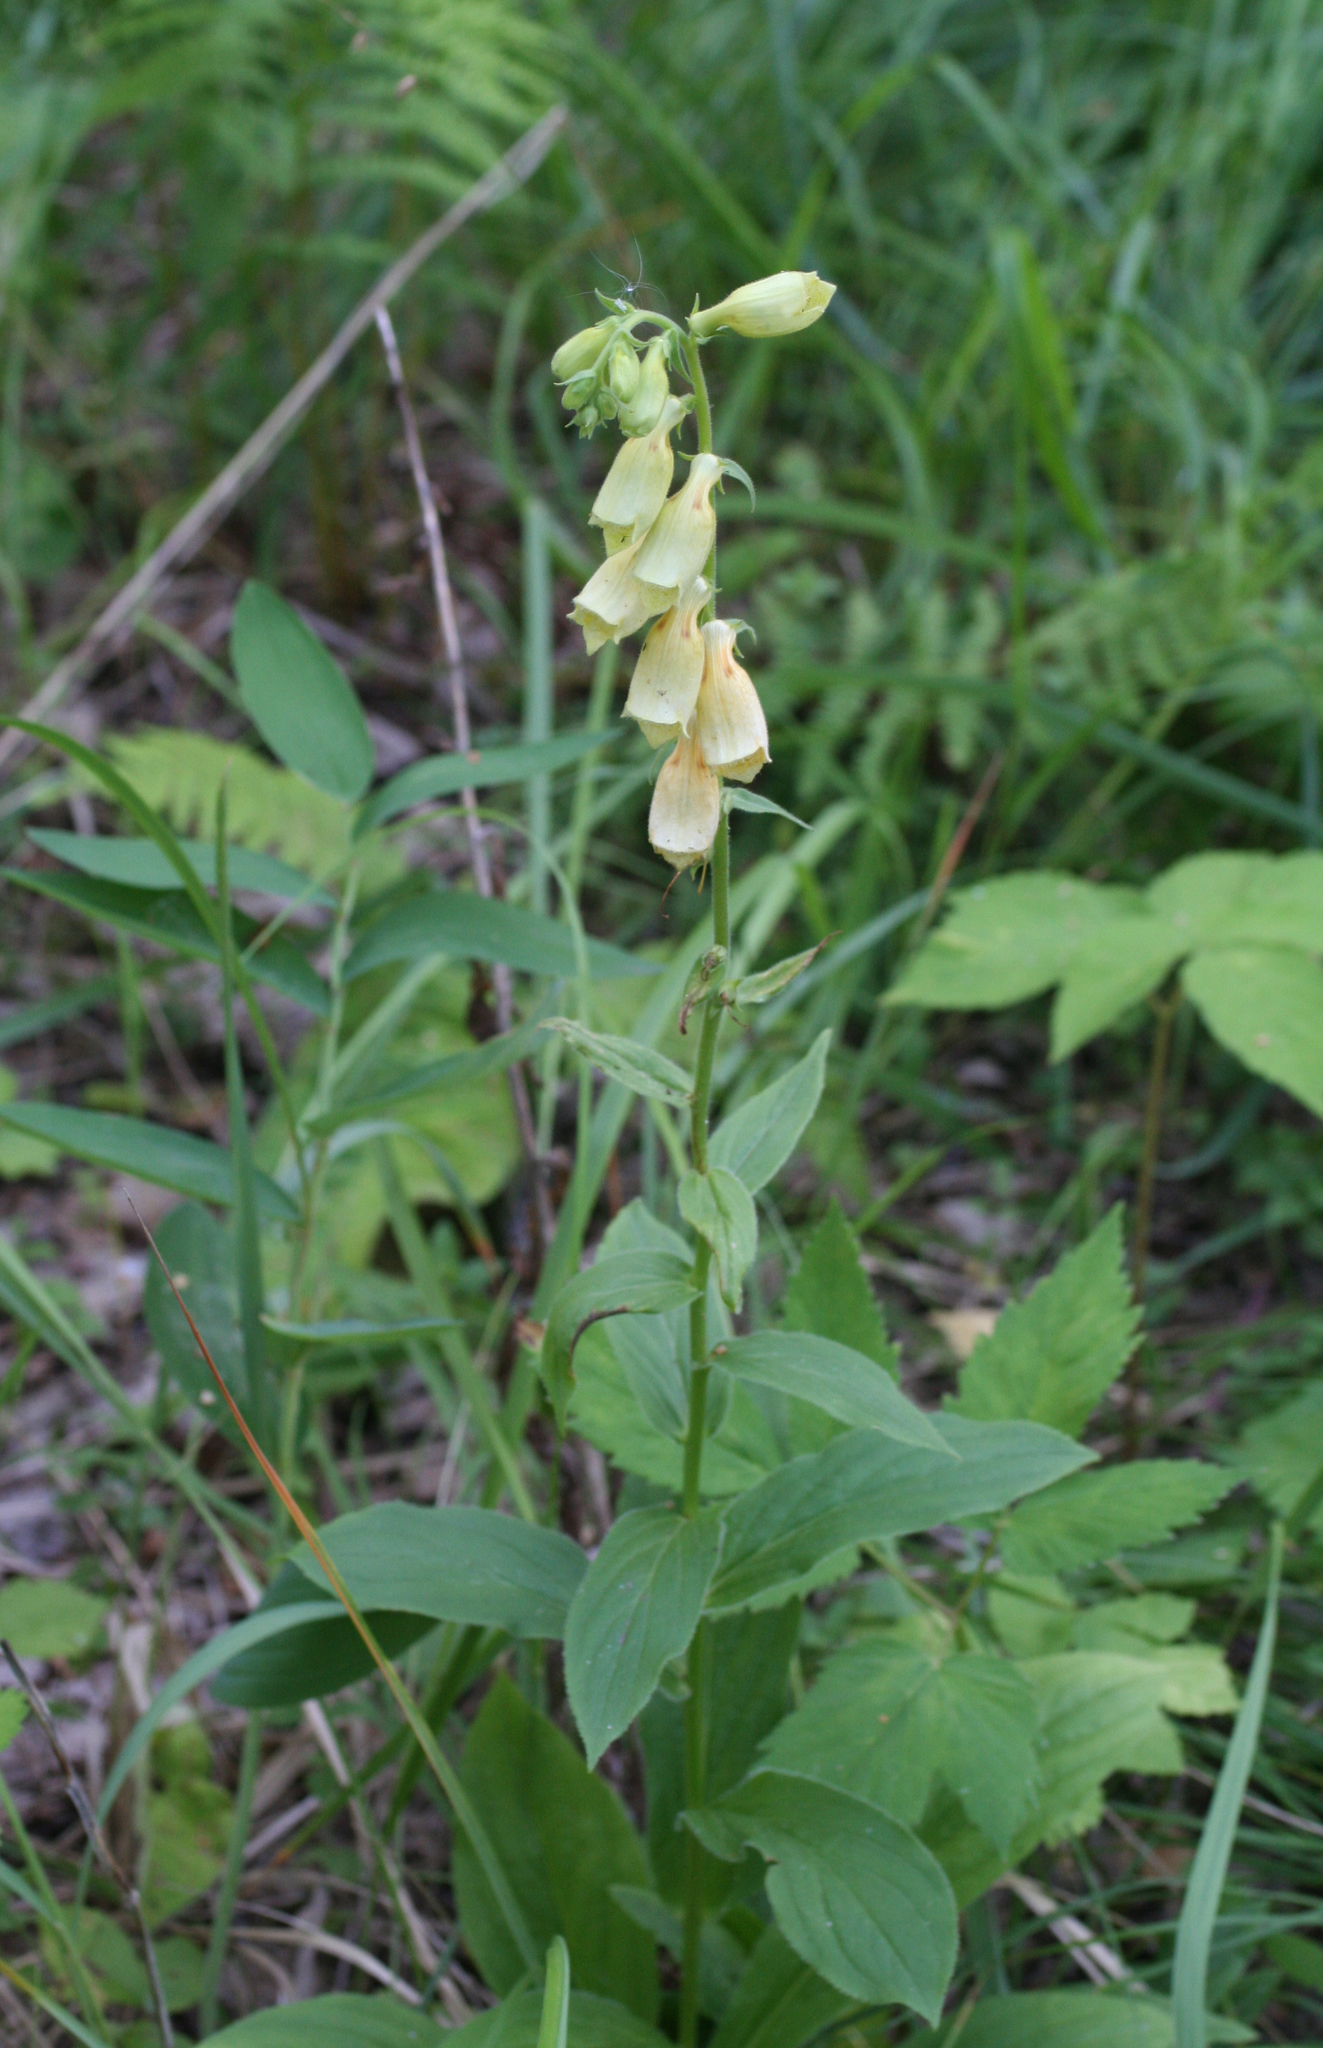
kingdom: Plantae
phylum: Tracheophyta
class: Magnoliopsida
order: Lamiales
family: Plantaginaceae
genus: Digitalis
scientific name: Digitalis grandiflora
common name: Yellow foxglove
